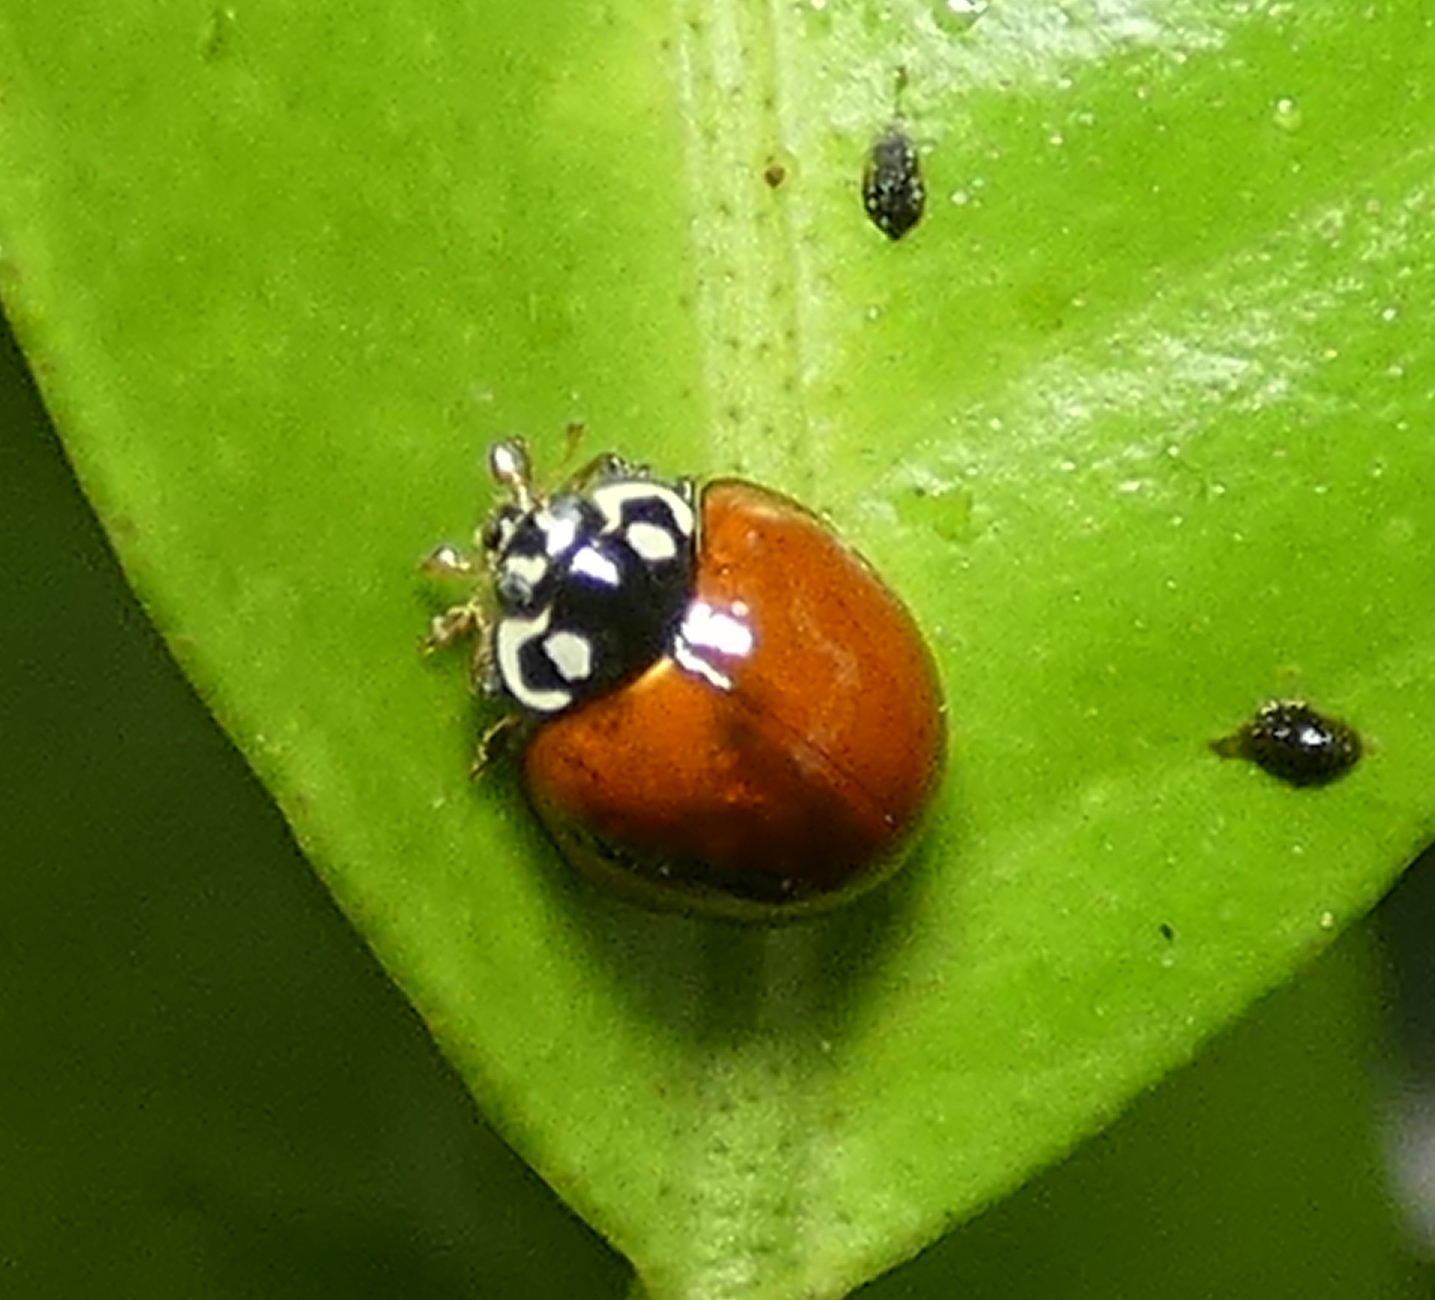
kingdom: Animalia
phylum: Arthropoda
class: Insecta
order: Coleoptera
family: Coccinellidae
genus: Cycloneda
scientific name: Cycloneda sanguinea
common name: Ladybird beetle
